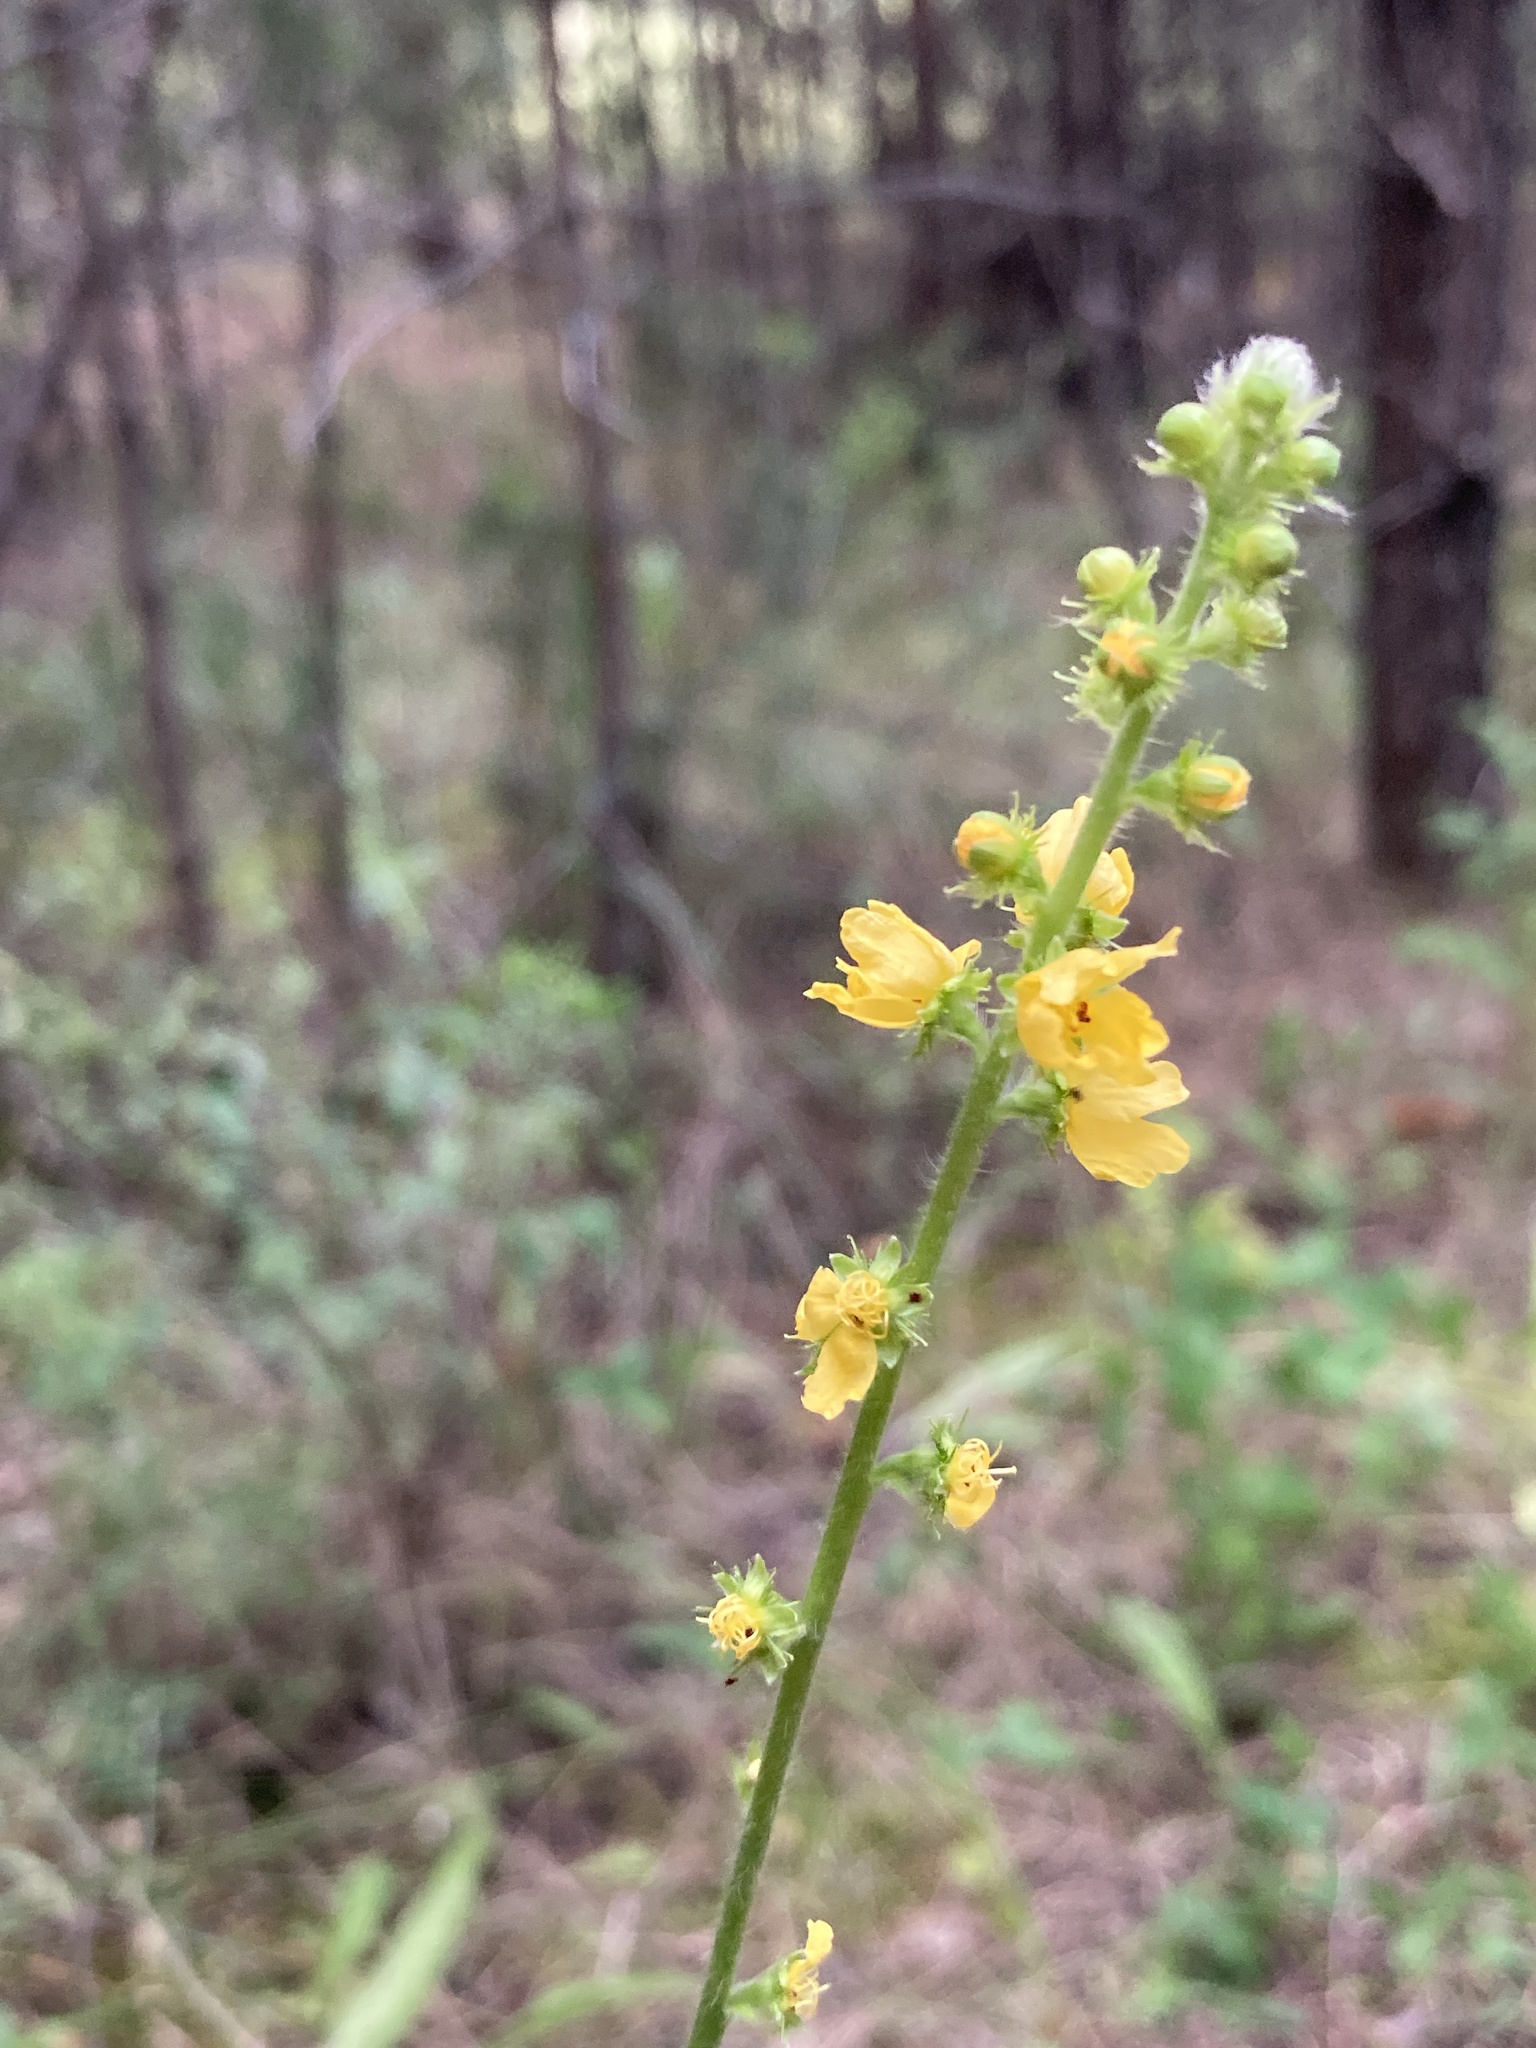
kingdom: Plantae
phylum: Tracheophyta
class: Magnoliopsida
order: Rosales
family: Rosaceae
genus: Agrimonia
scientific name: Agrimonia eupatoria
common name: Agrimony
